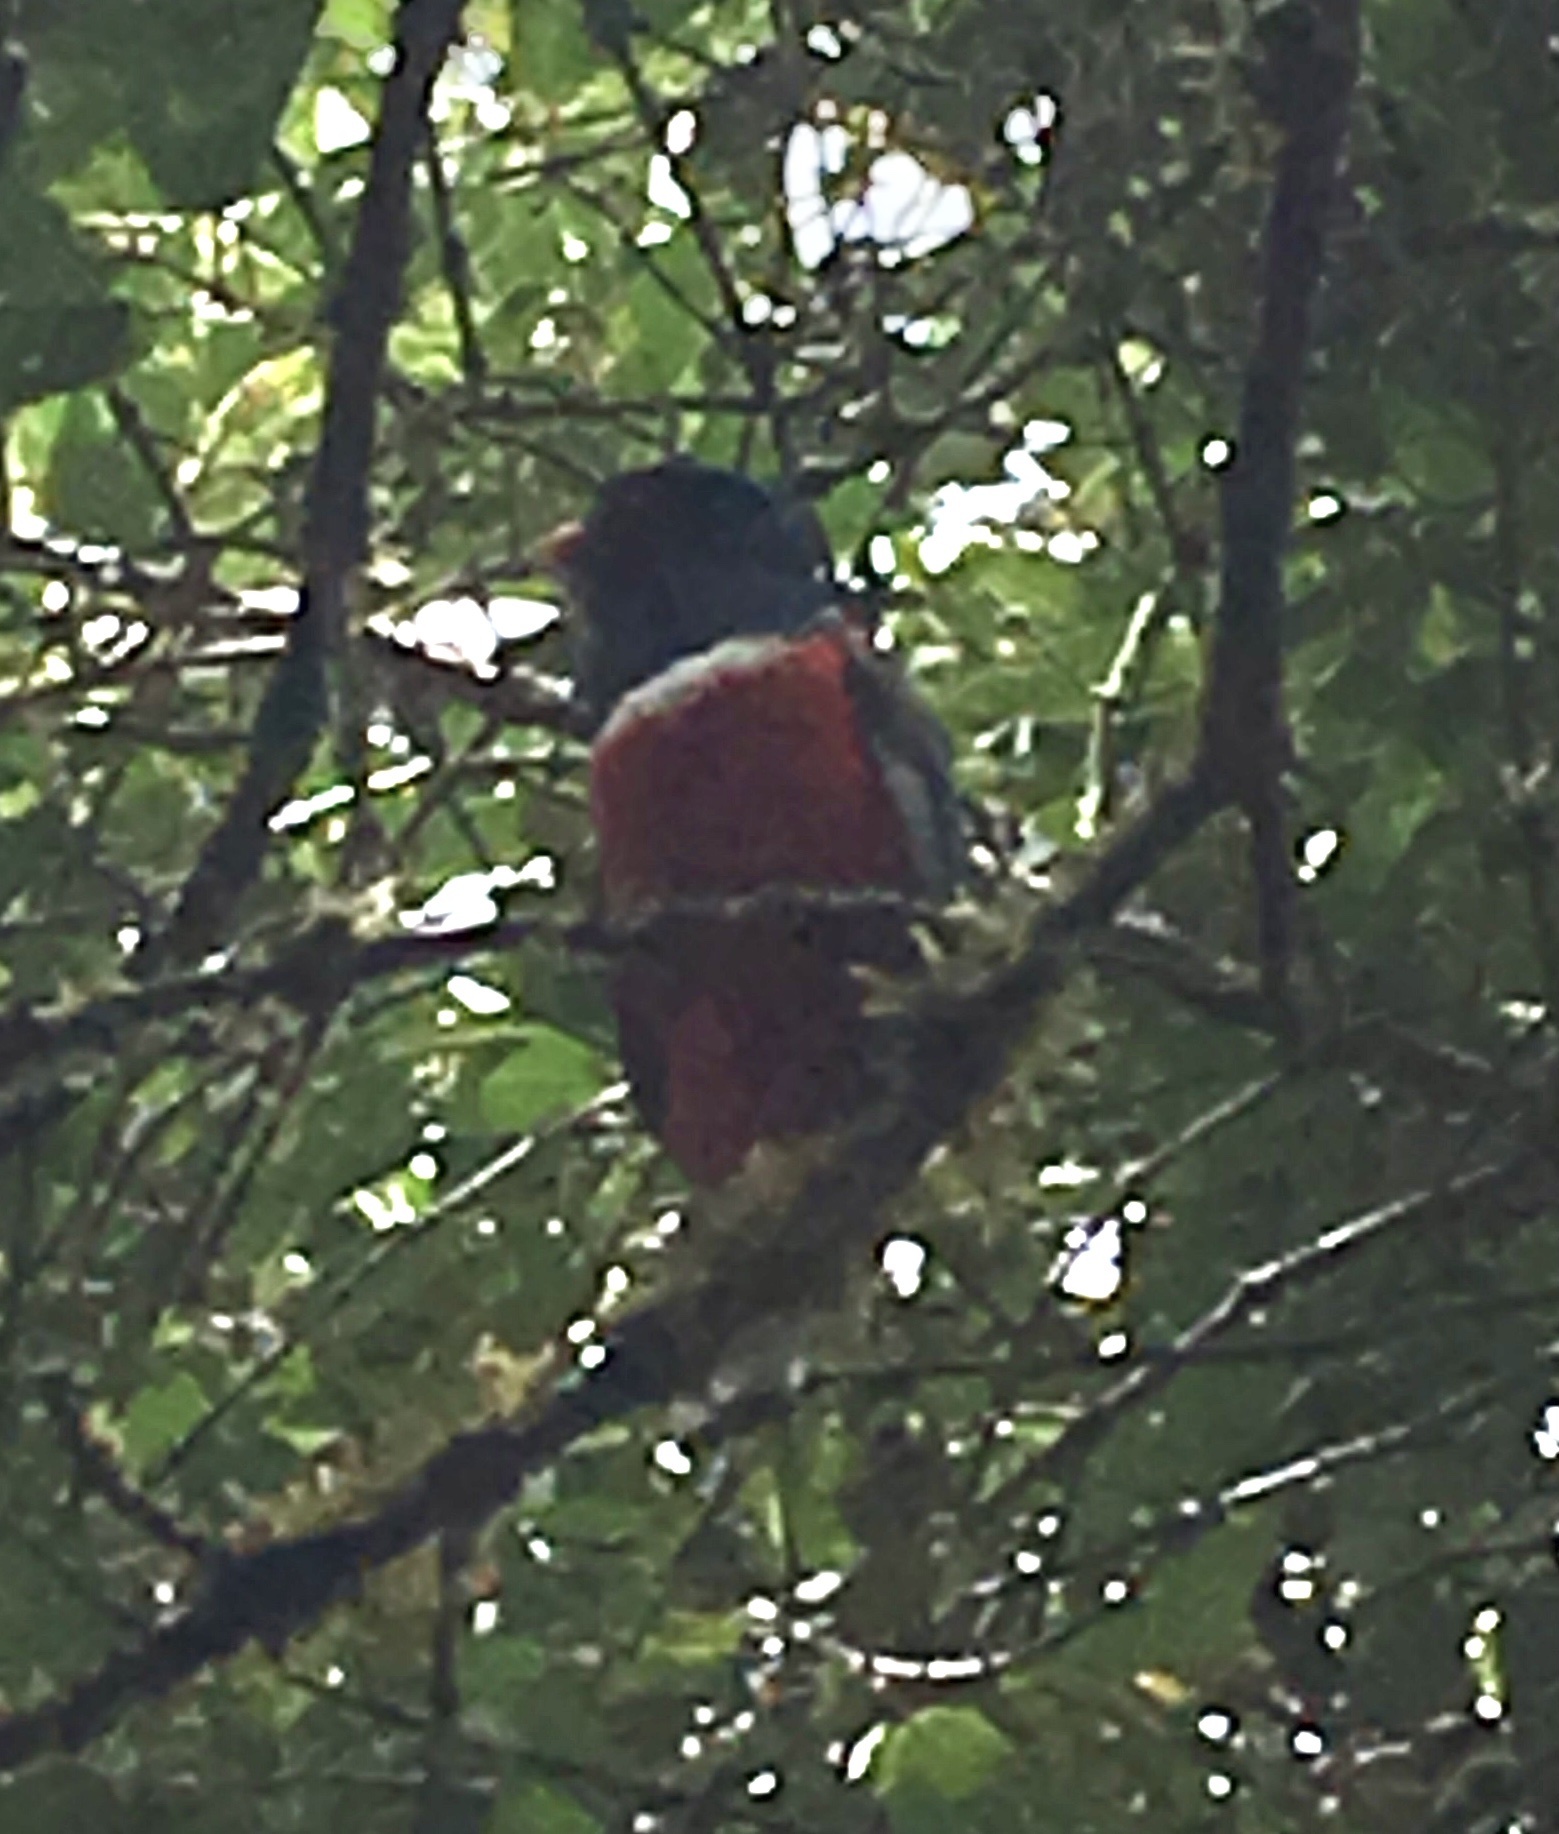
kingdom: Animalia
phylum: Chordata
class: Aves
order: Trogoniformes
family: Trogonidae
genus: Trogon
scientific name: Trogon personatus
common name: Masked trogon
